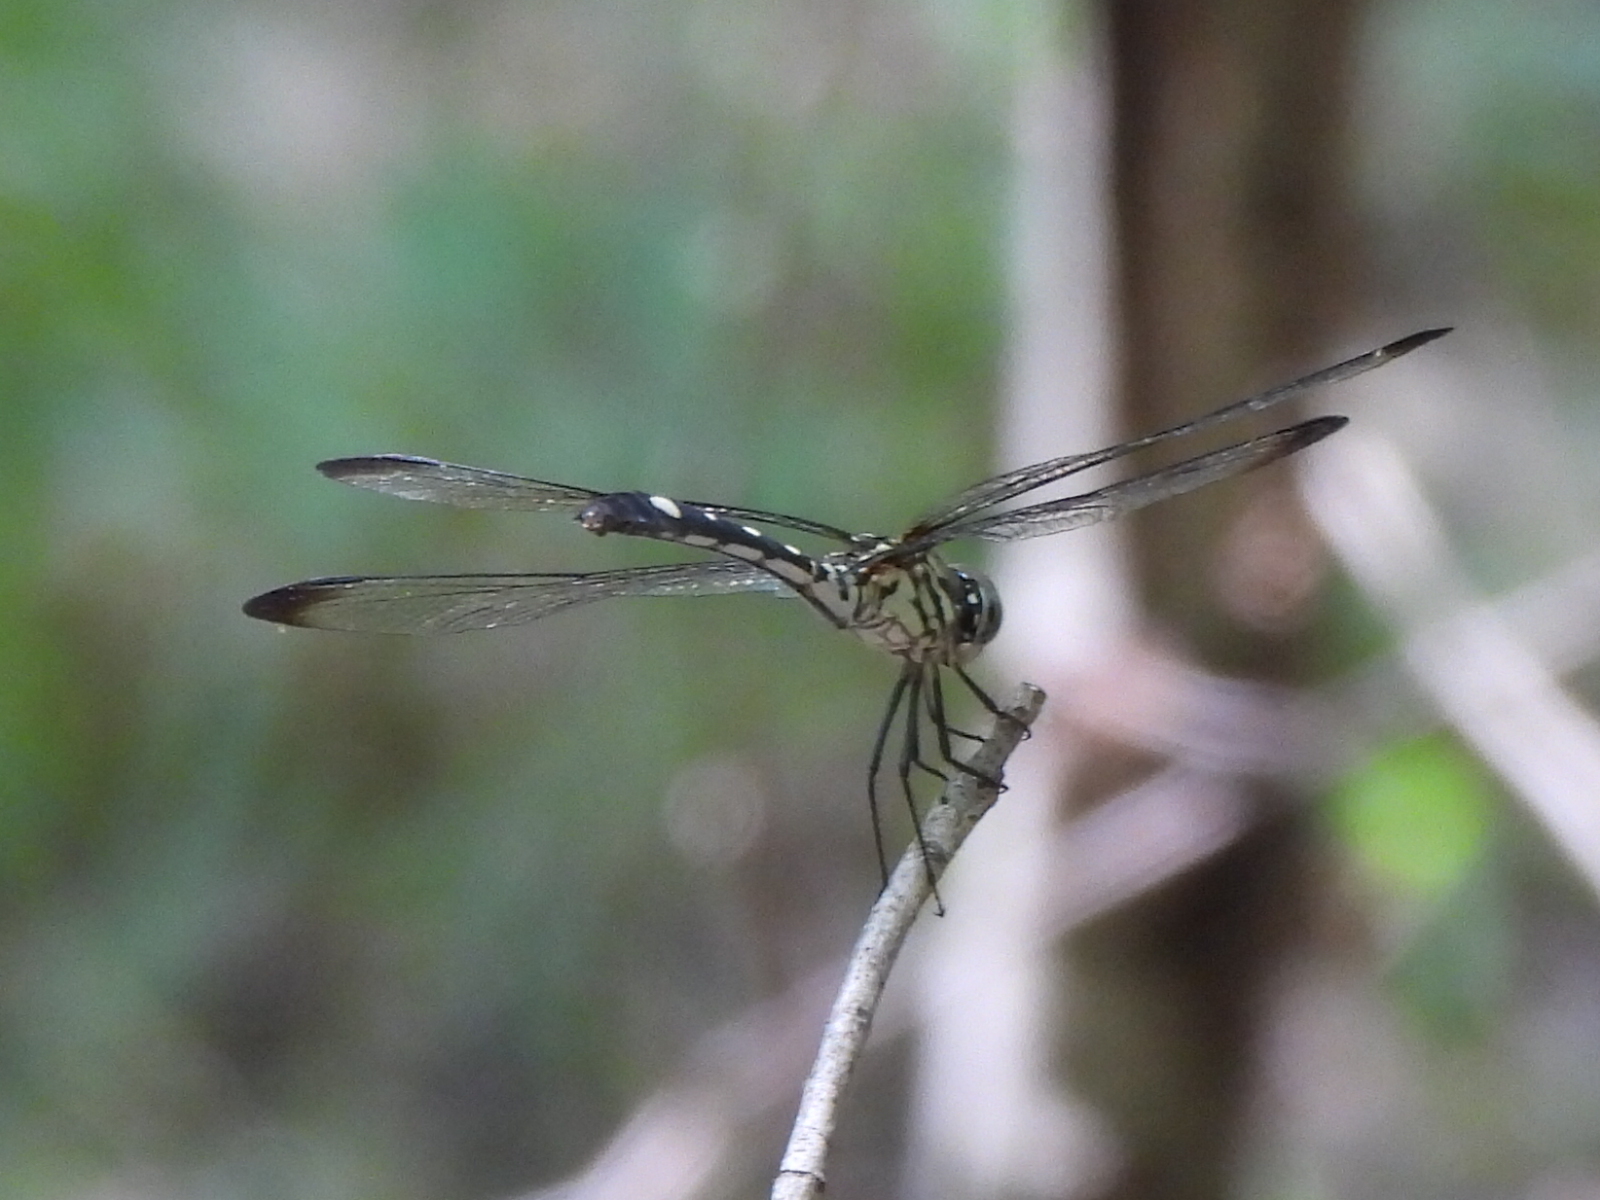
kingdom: Animalia
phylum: Arthropoda
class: Insecta
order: Odonata
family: Libellulidae
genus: Dythemis
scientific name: Dythemis velox
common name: Swift setwing
